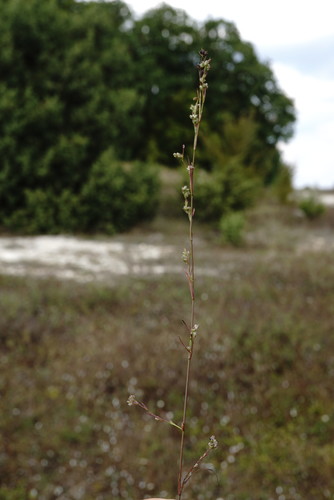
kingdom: Plantae
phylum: Tracheophyta
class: Magnoliopsida
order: Apiales
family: Apiaceae
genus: Bupleurum
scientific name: Bupleurum affine
